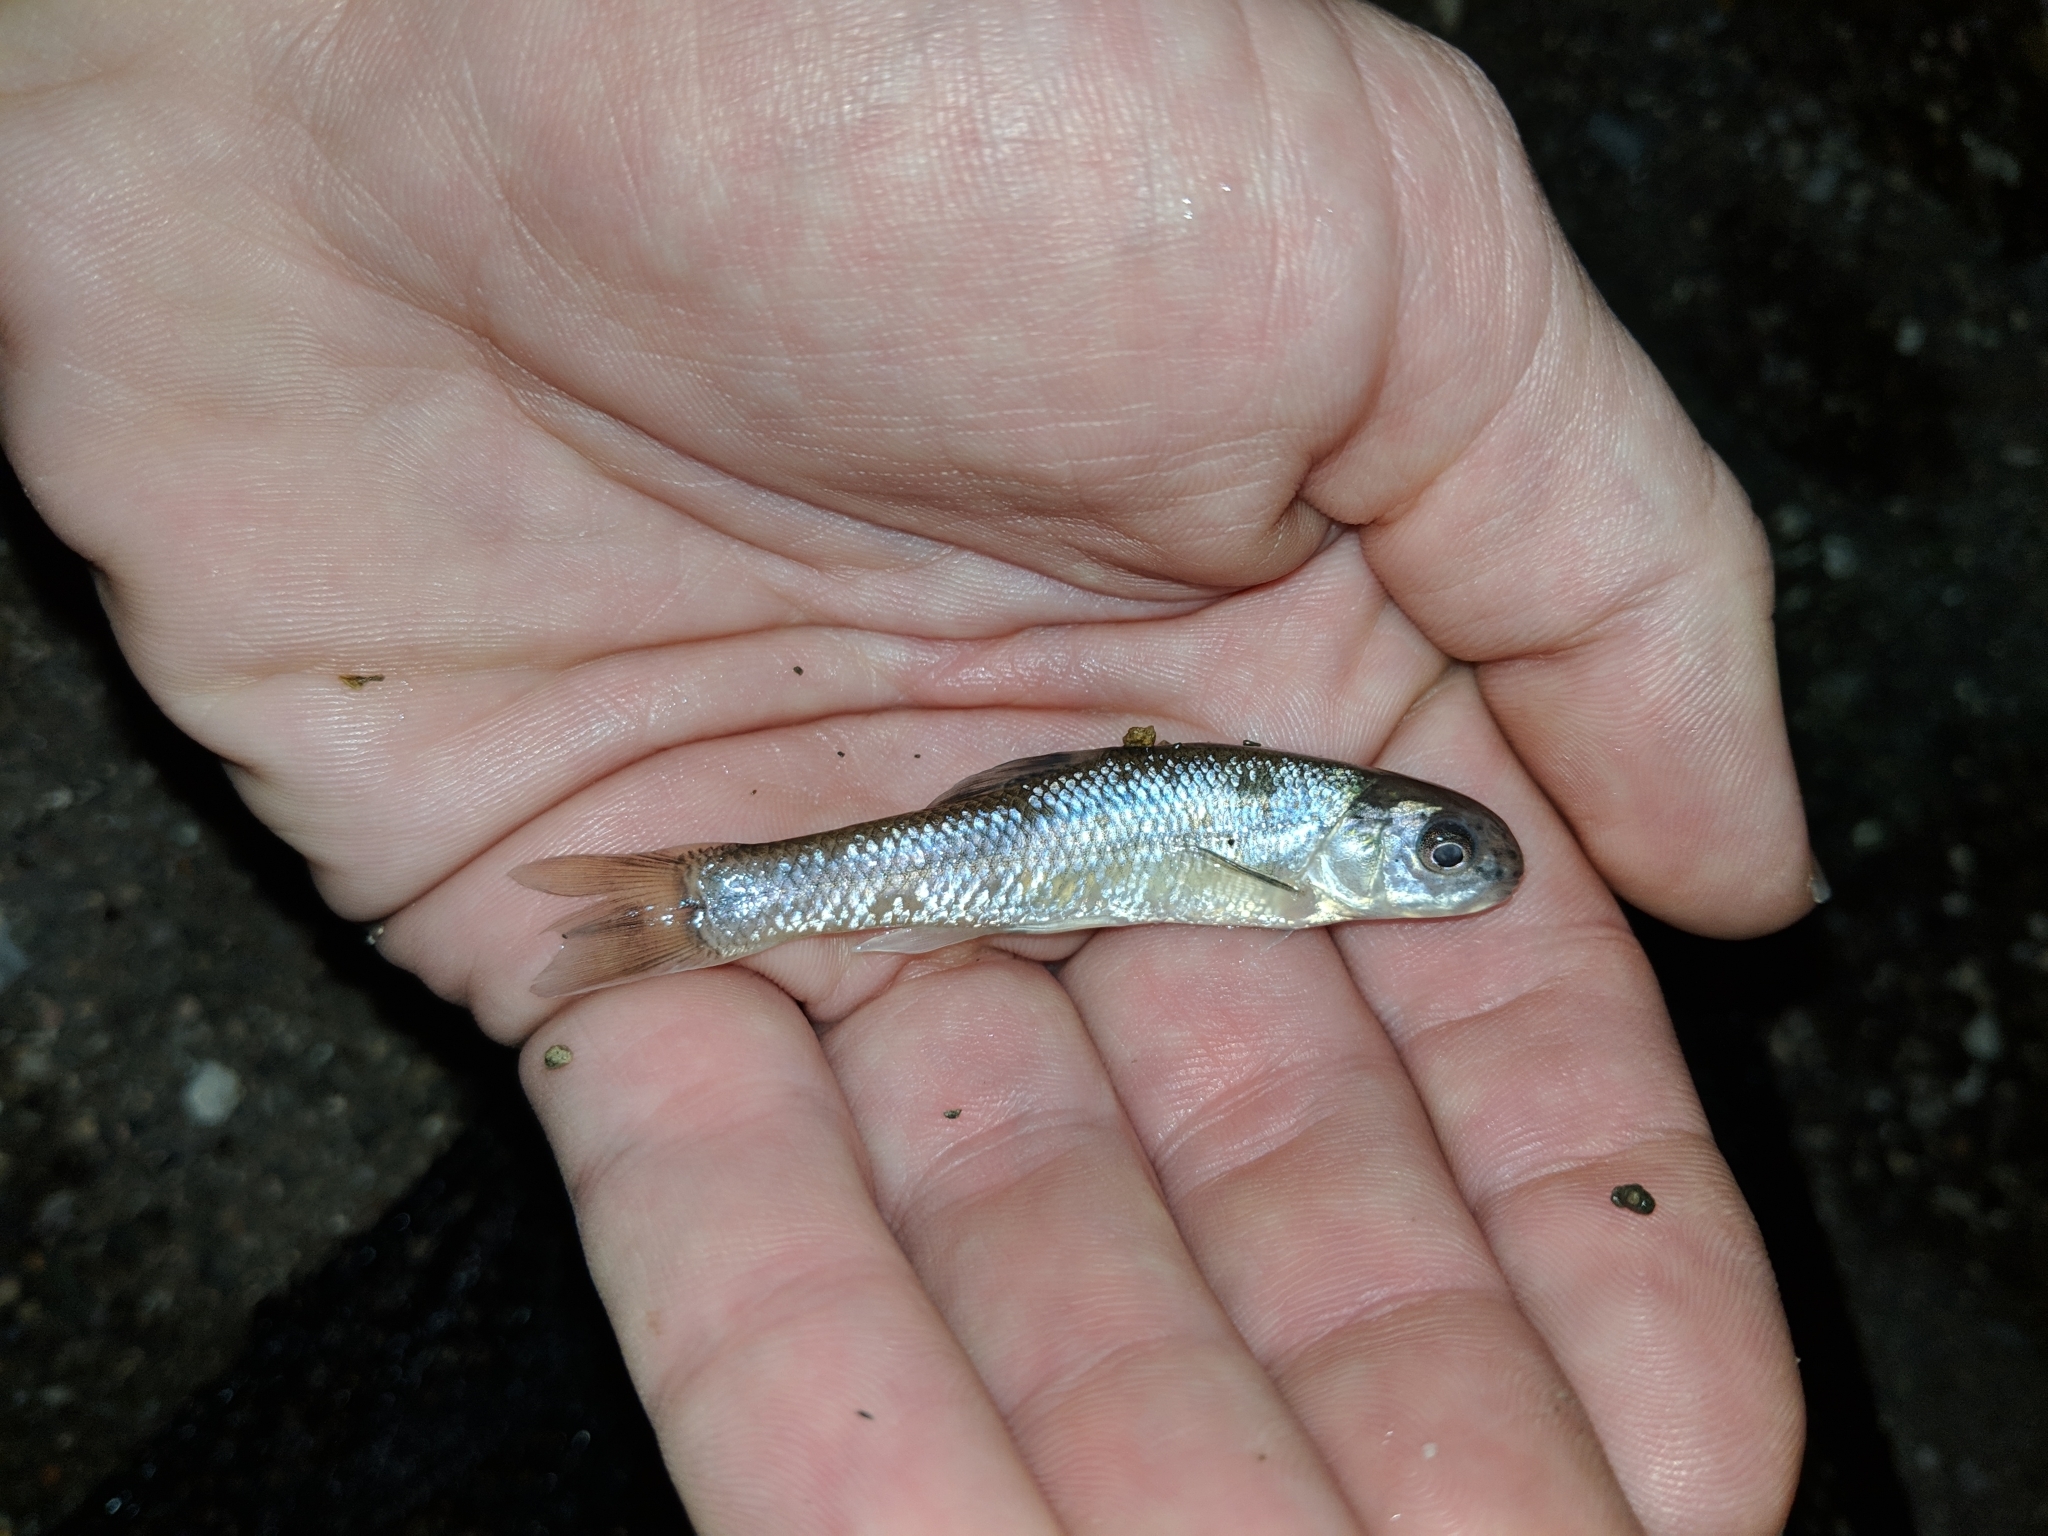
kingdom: Animalia
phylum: Chordata
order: Cypriniformes
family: Cyprinidae
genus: Pimephales
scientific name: Pimephales promelas
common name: Fathead minnow
